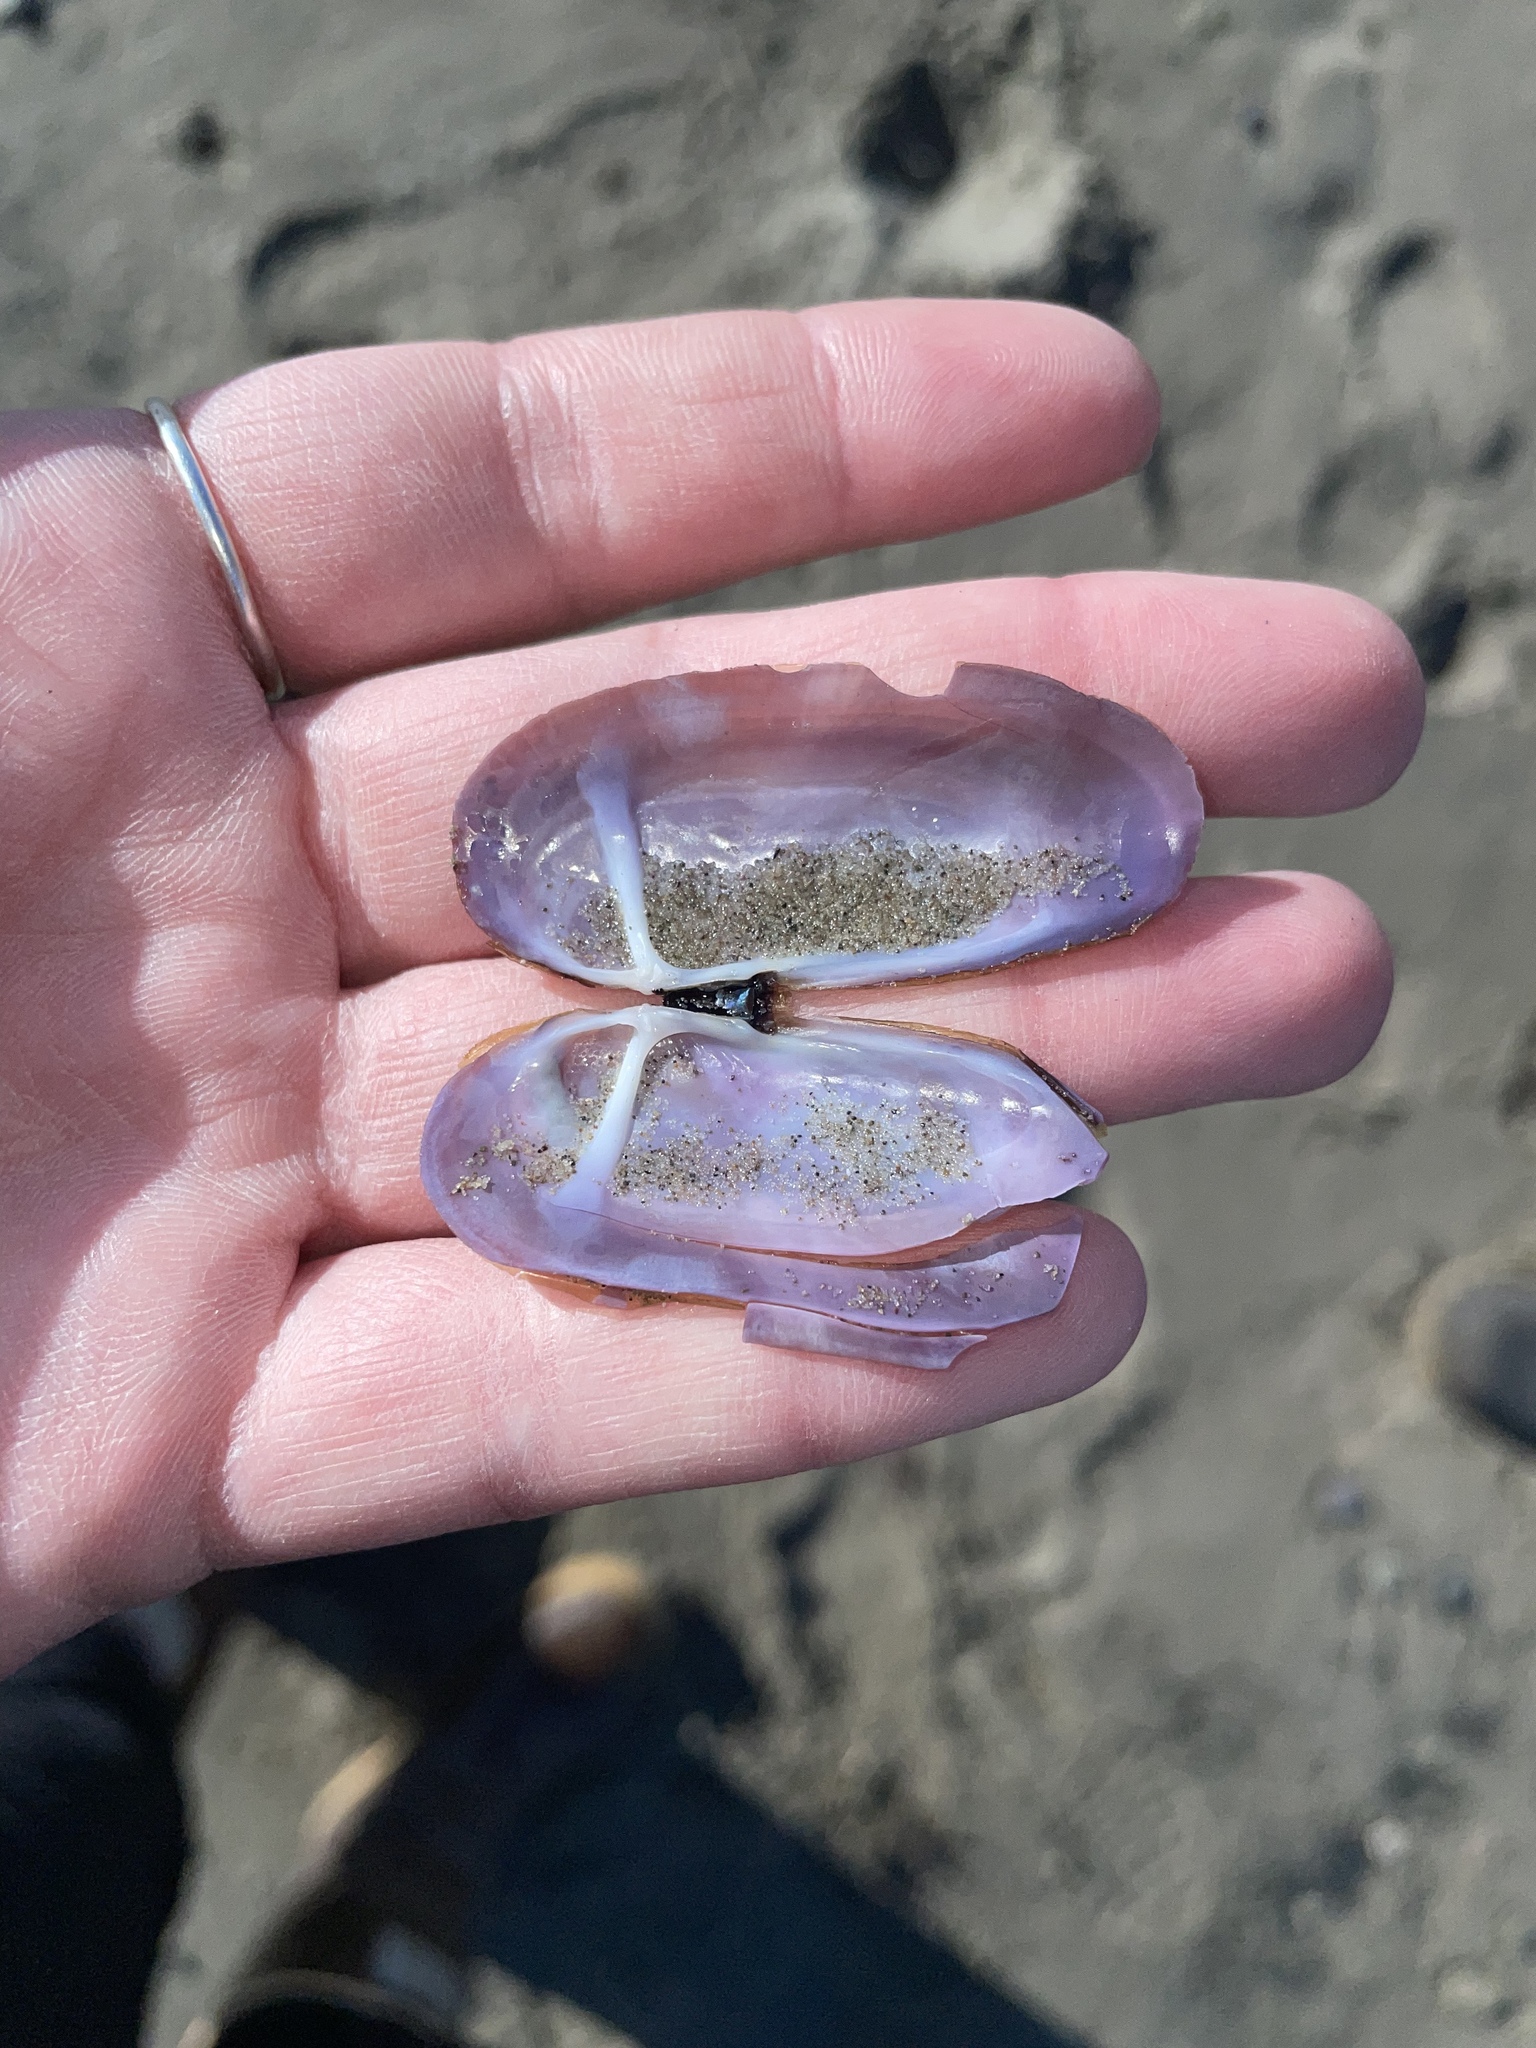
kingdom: Animalia
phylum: Mollusca
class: Bivalvia
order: Adapedonta
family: Pharidae
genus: Siliqua
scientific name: Siliqua costata
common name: Atlantic razor
